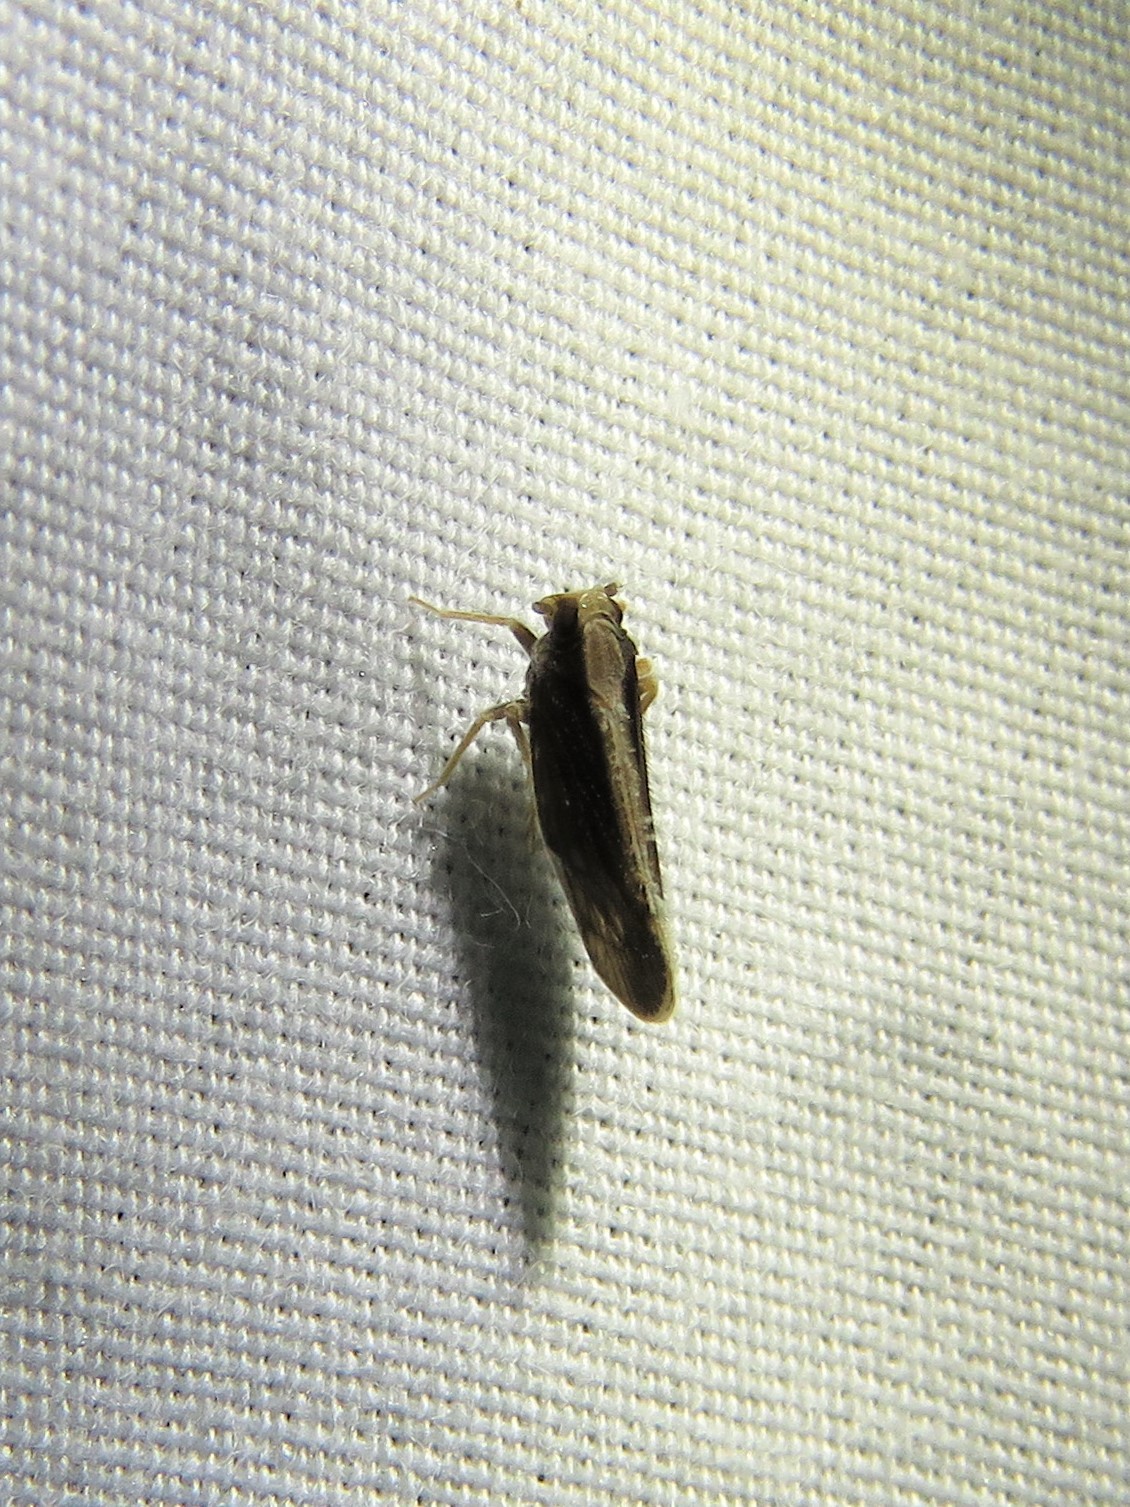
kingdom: Animalia
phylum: Arthropoda
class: Insecta
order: Hemiptera
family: Cixiidae
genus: Pintalia
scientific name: Pintalia delicata
